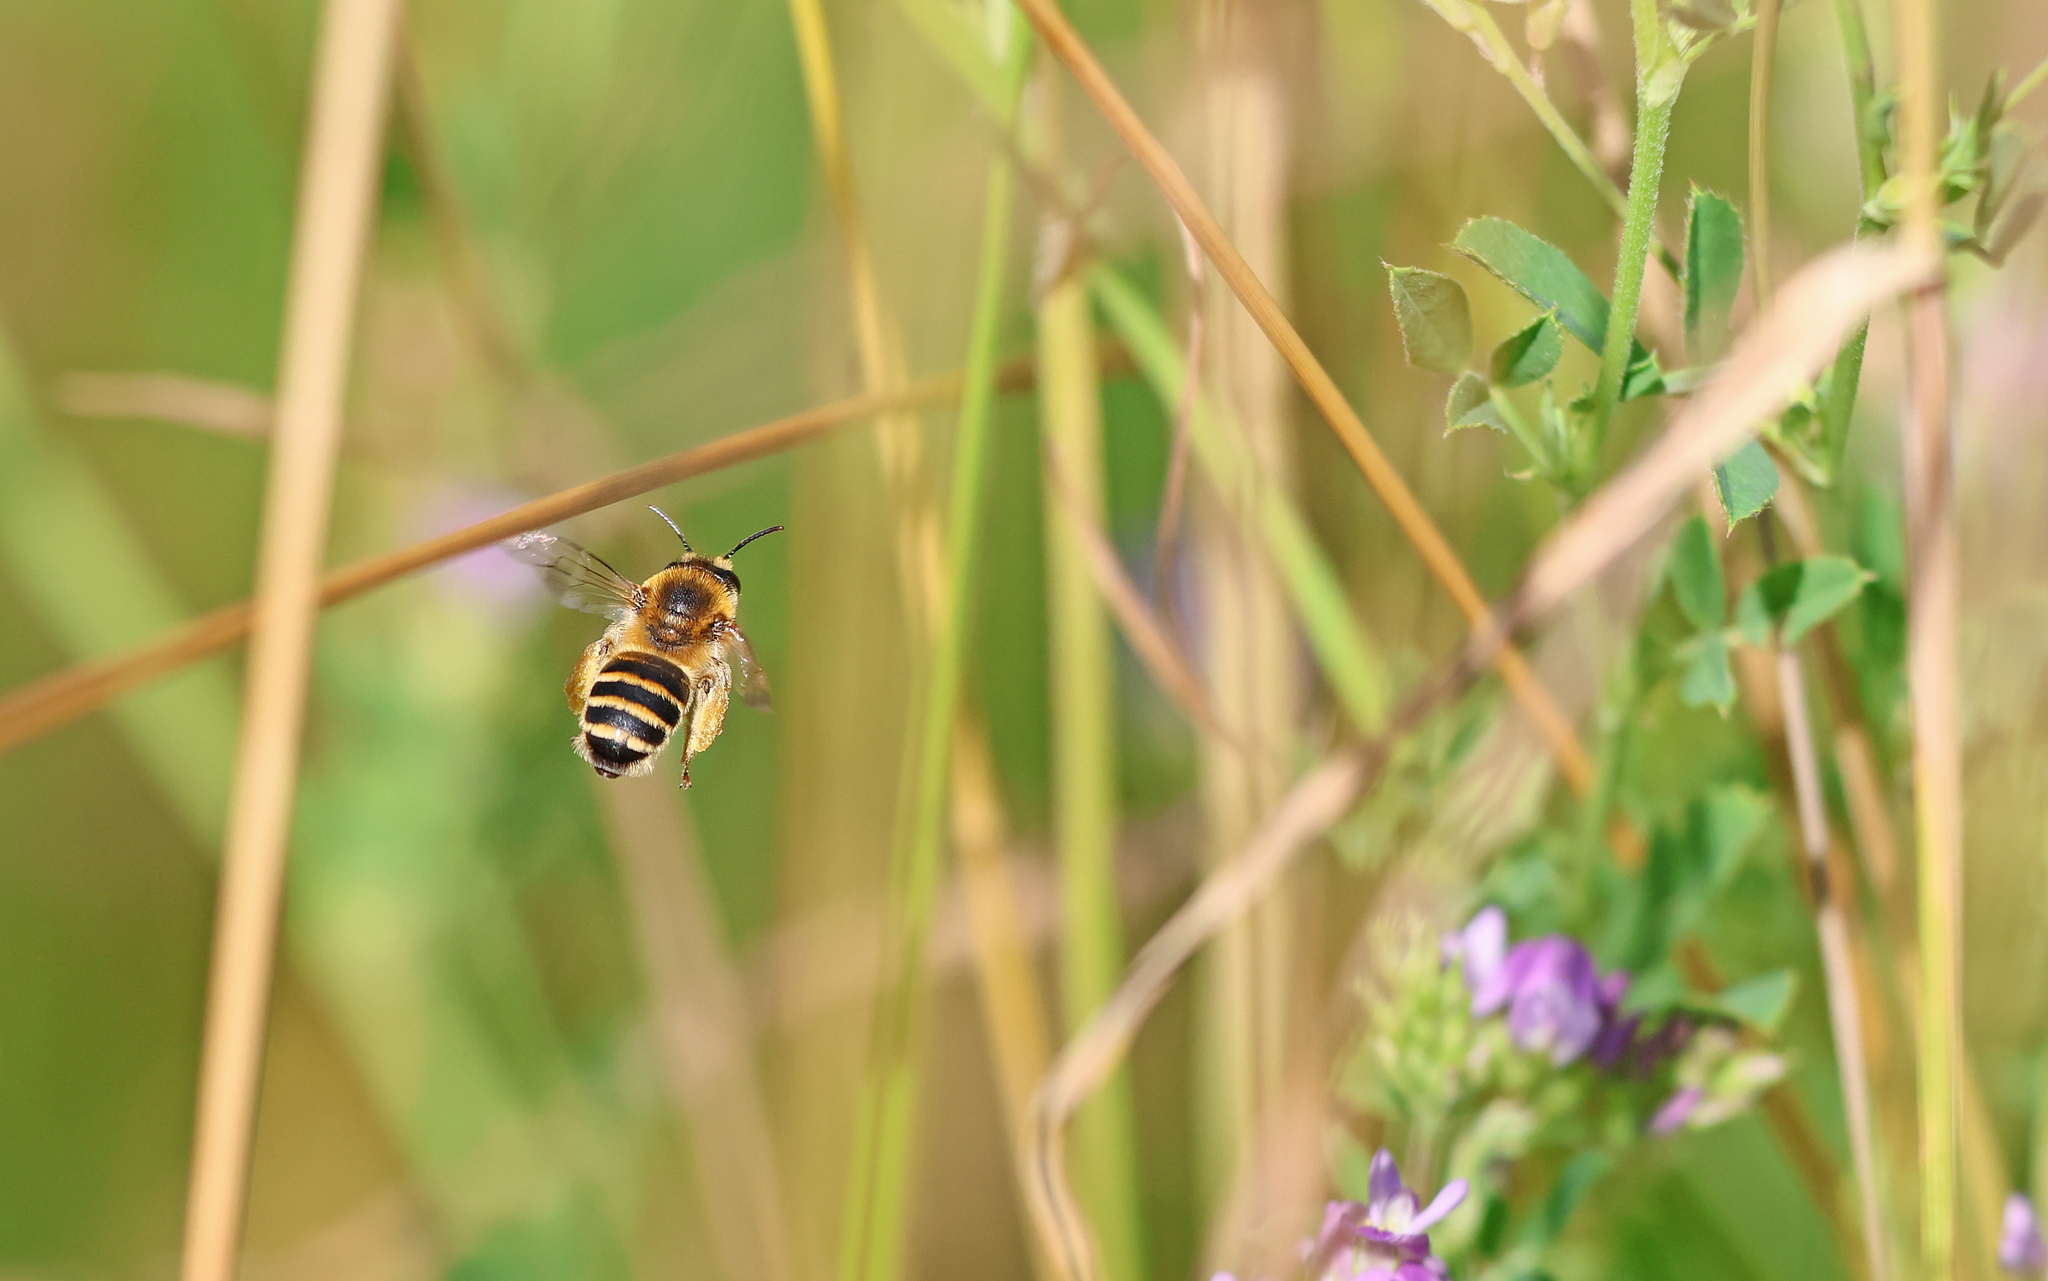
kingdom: Animalia
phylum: Arthropoda
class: Insecta
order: Hymenoptera
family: Melittidae
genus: Melitta
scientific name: Melitta leporina
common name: Clover melitta
